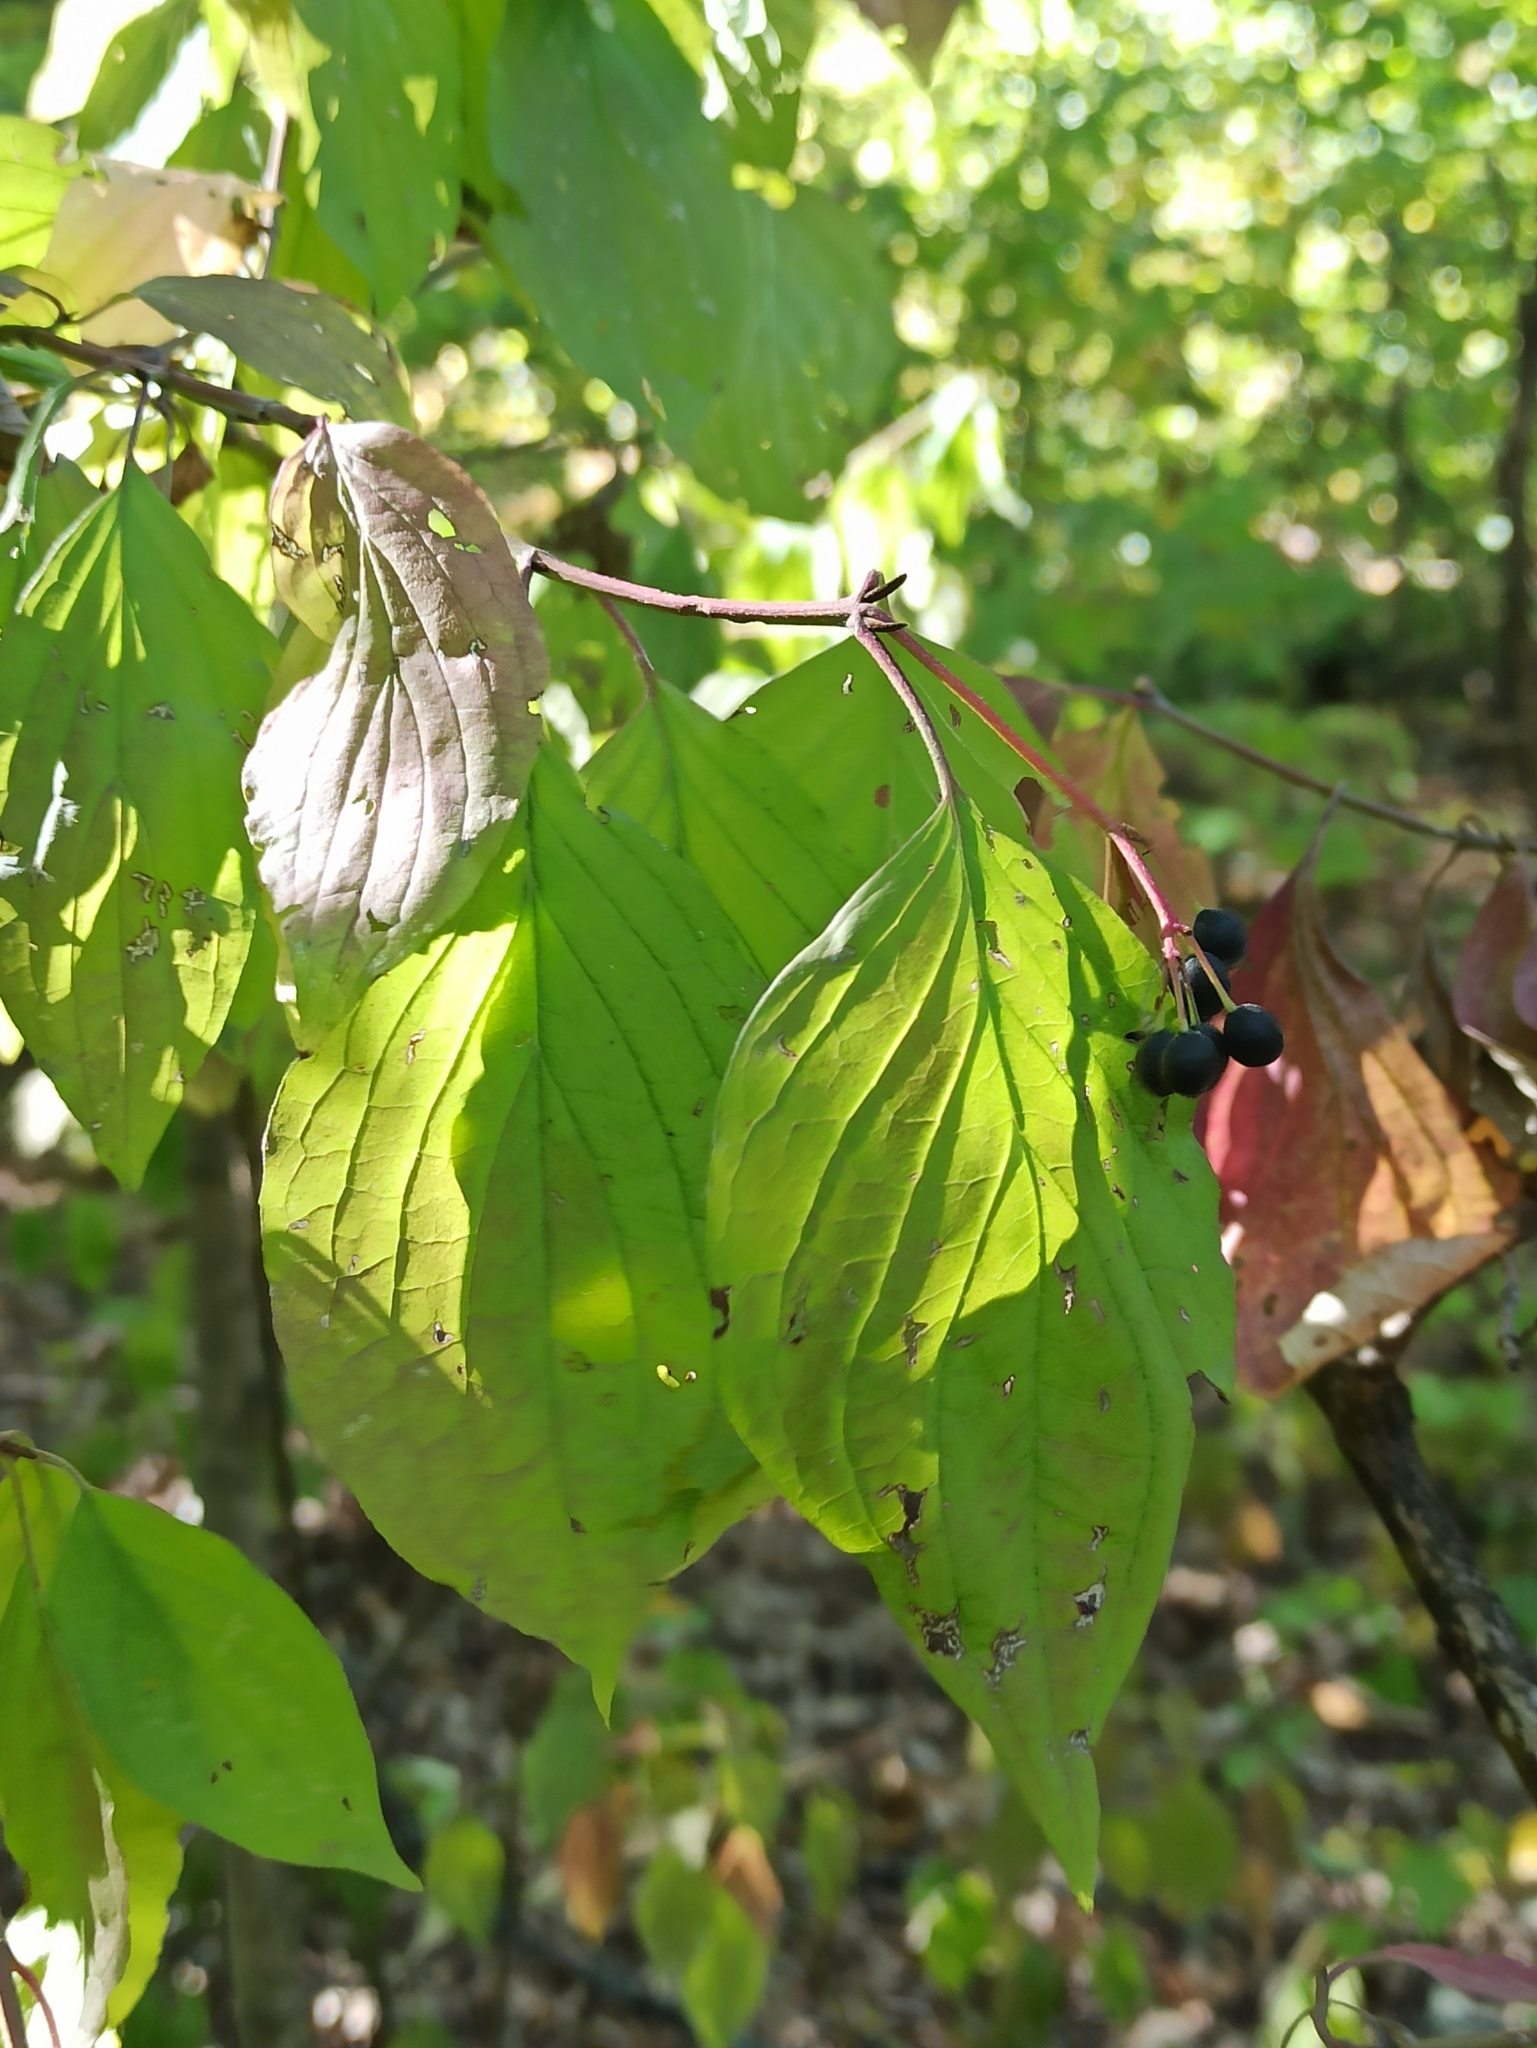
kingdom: Plantae
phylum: Tracheophyta
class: Magnoliopsida
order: Cornales
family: Cornaceae
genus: Cornus
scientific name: Cornus sanguinea
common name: Dogwood
